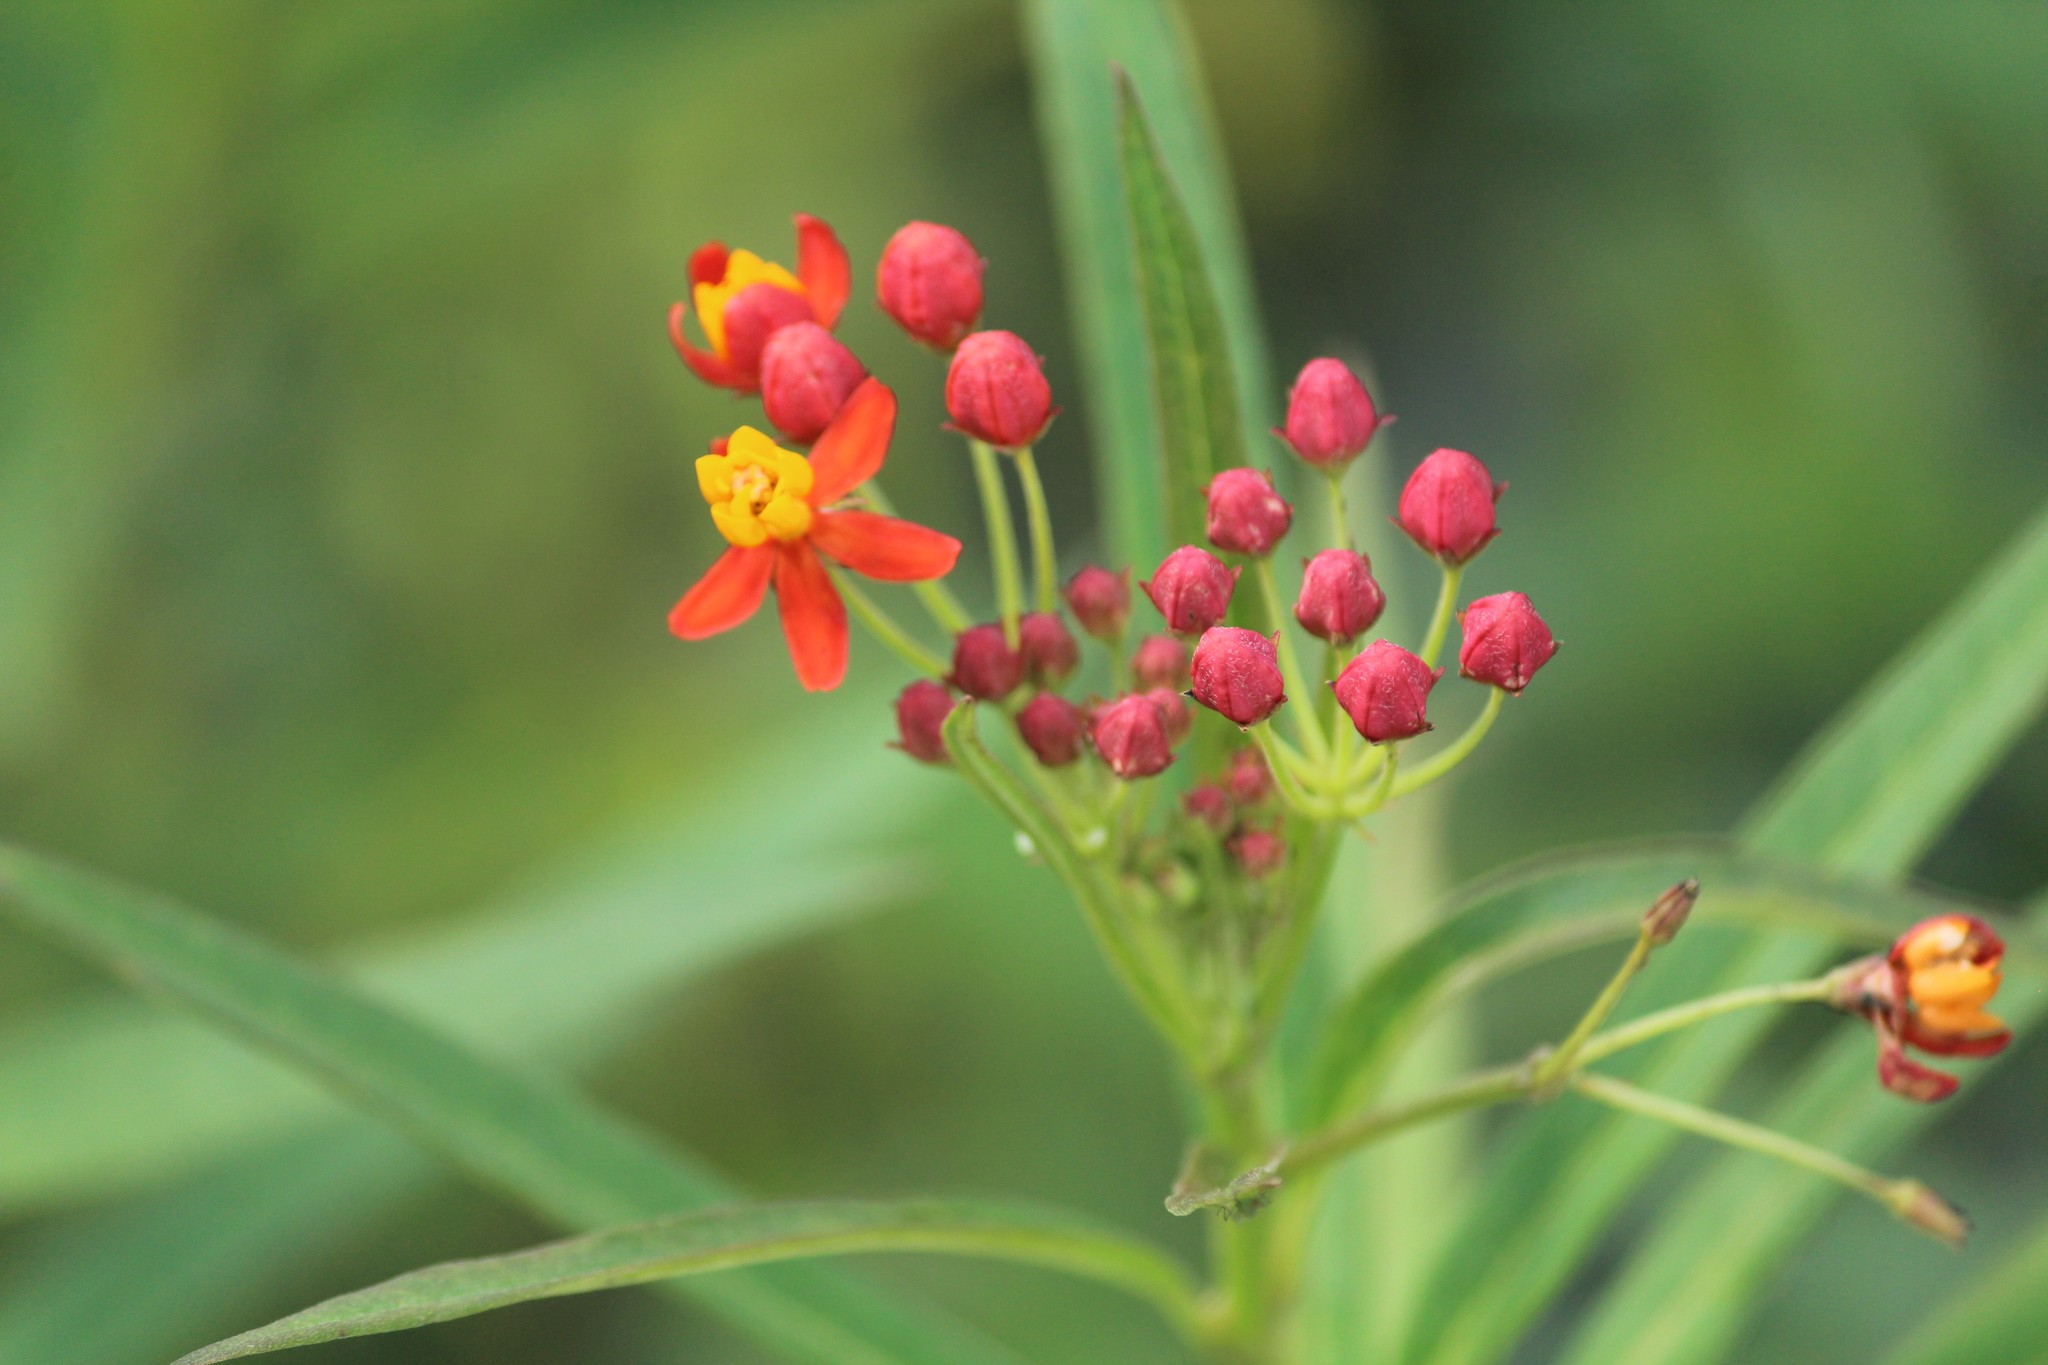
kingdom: Plantae
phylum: Tracheophyta
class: Magnoliopsida
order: Gentianales
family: Apocynaceae
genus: Asclepias
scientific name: Asclepias curassavica
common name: Bloodflower
